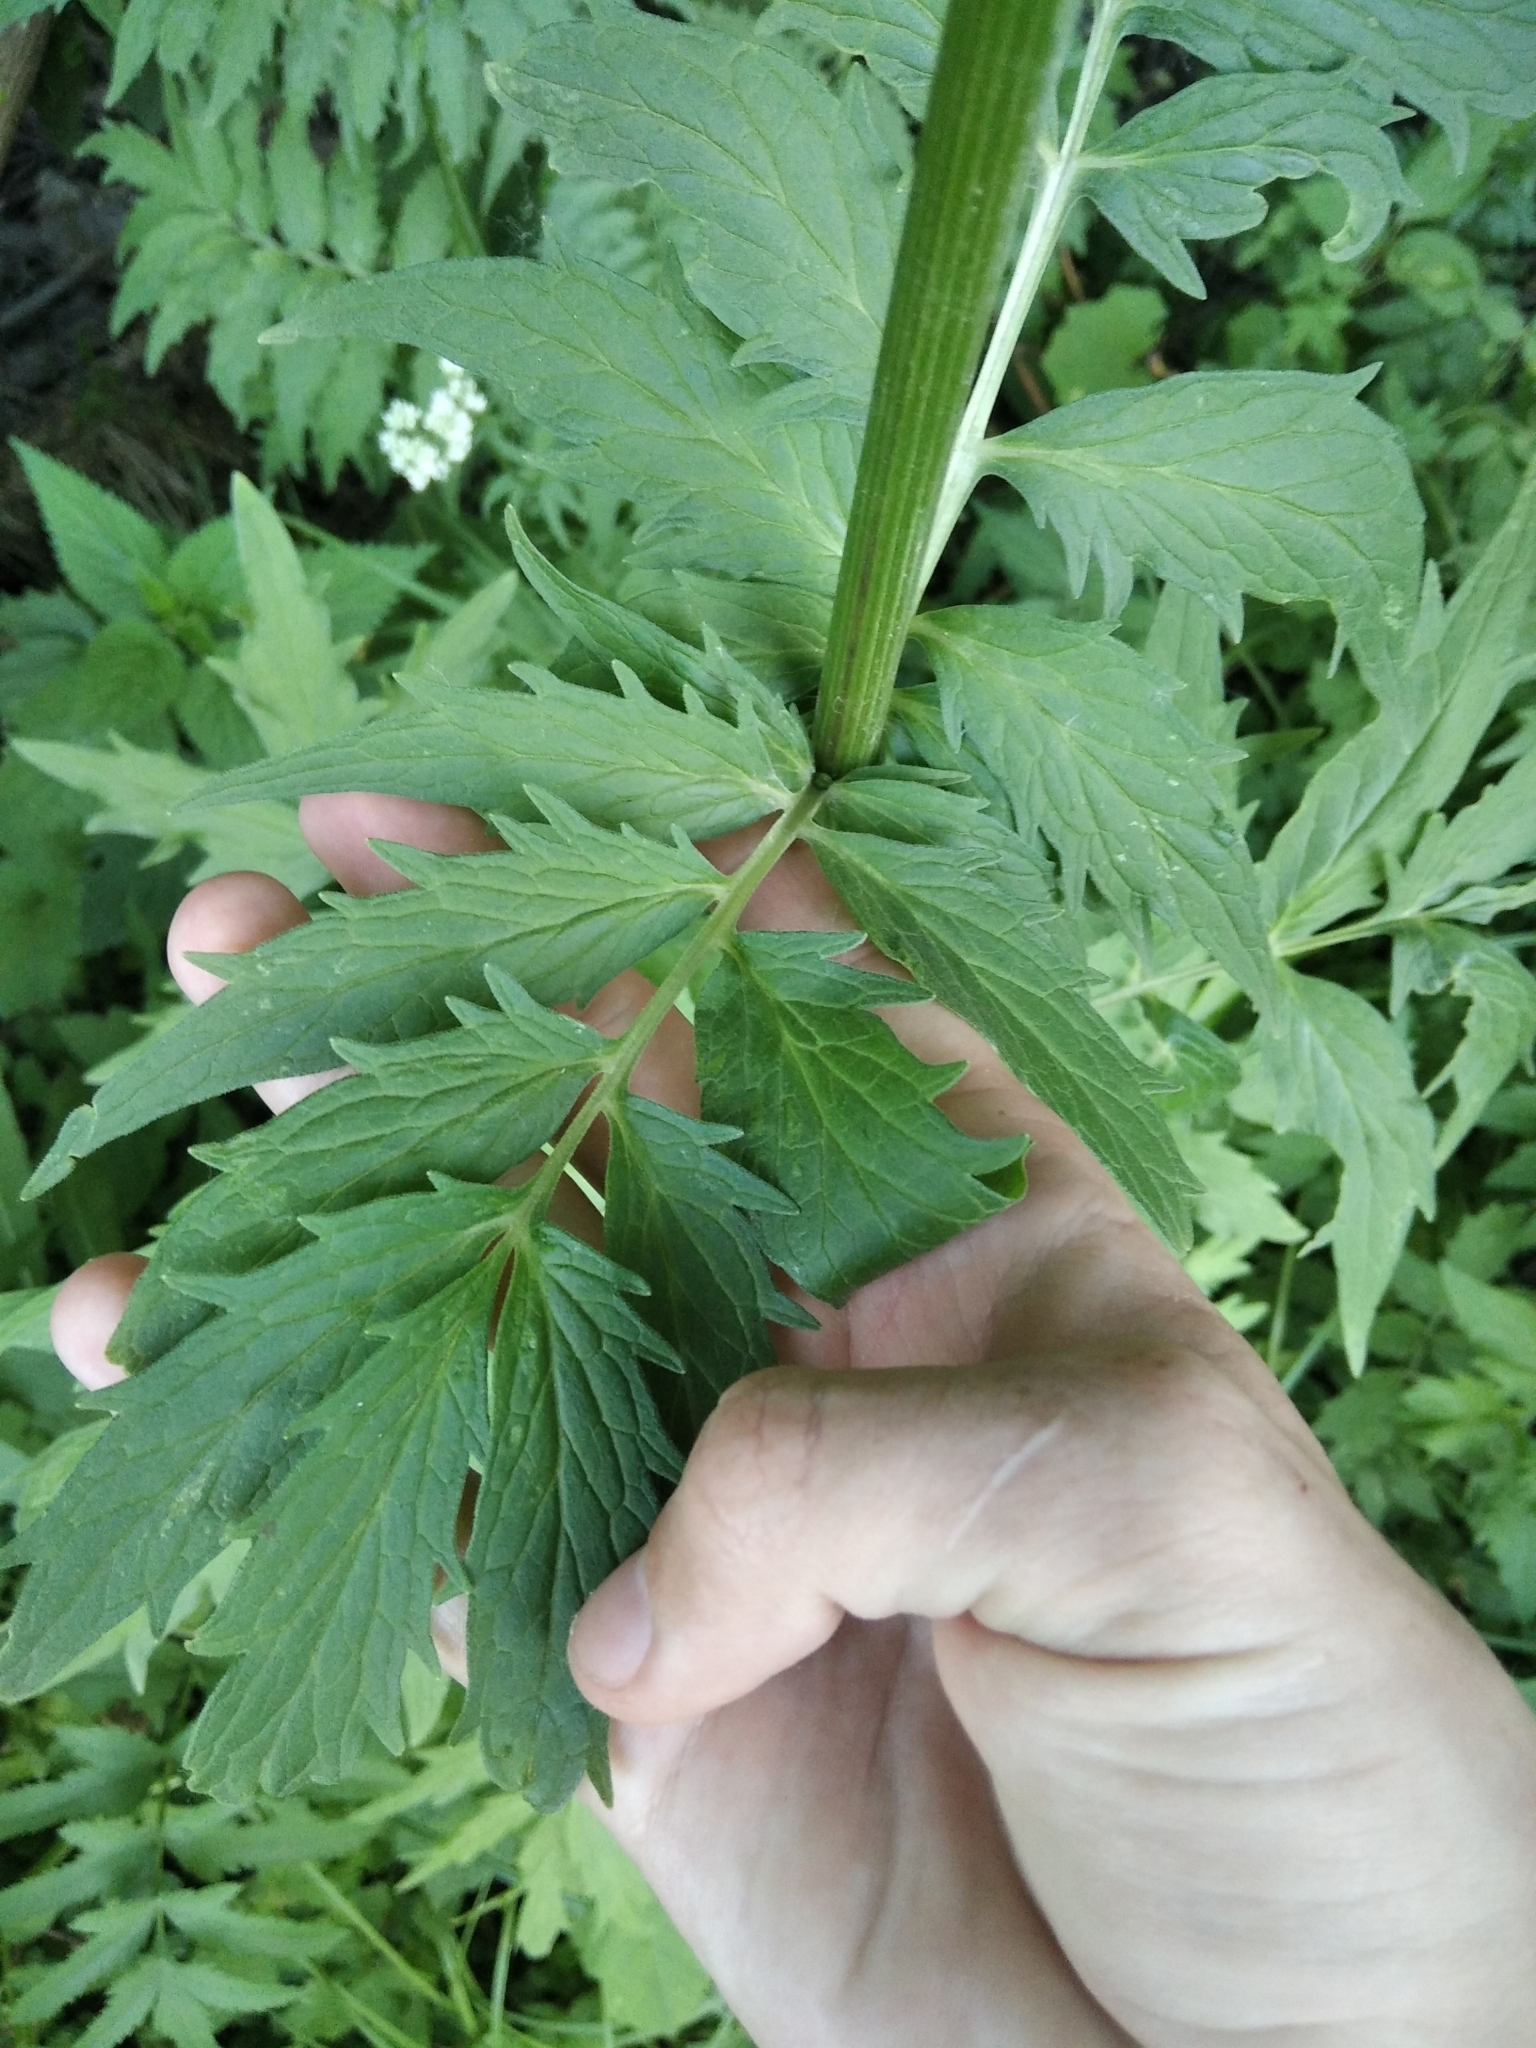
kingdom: Plantae
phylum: Tracheophyta
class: Magnoliopsida
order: Dipsacales
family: Caprifoliaceae
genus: Valeriana
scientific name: Valeriana officinalis
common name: Common valerian
